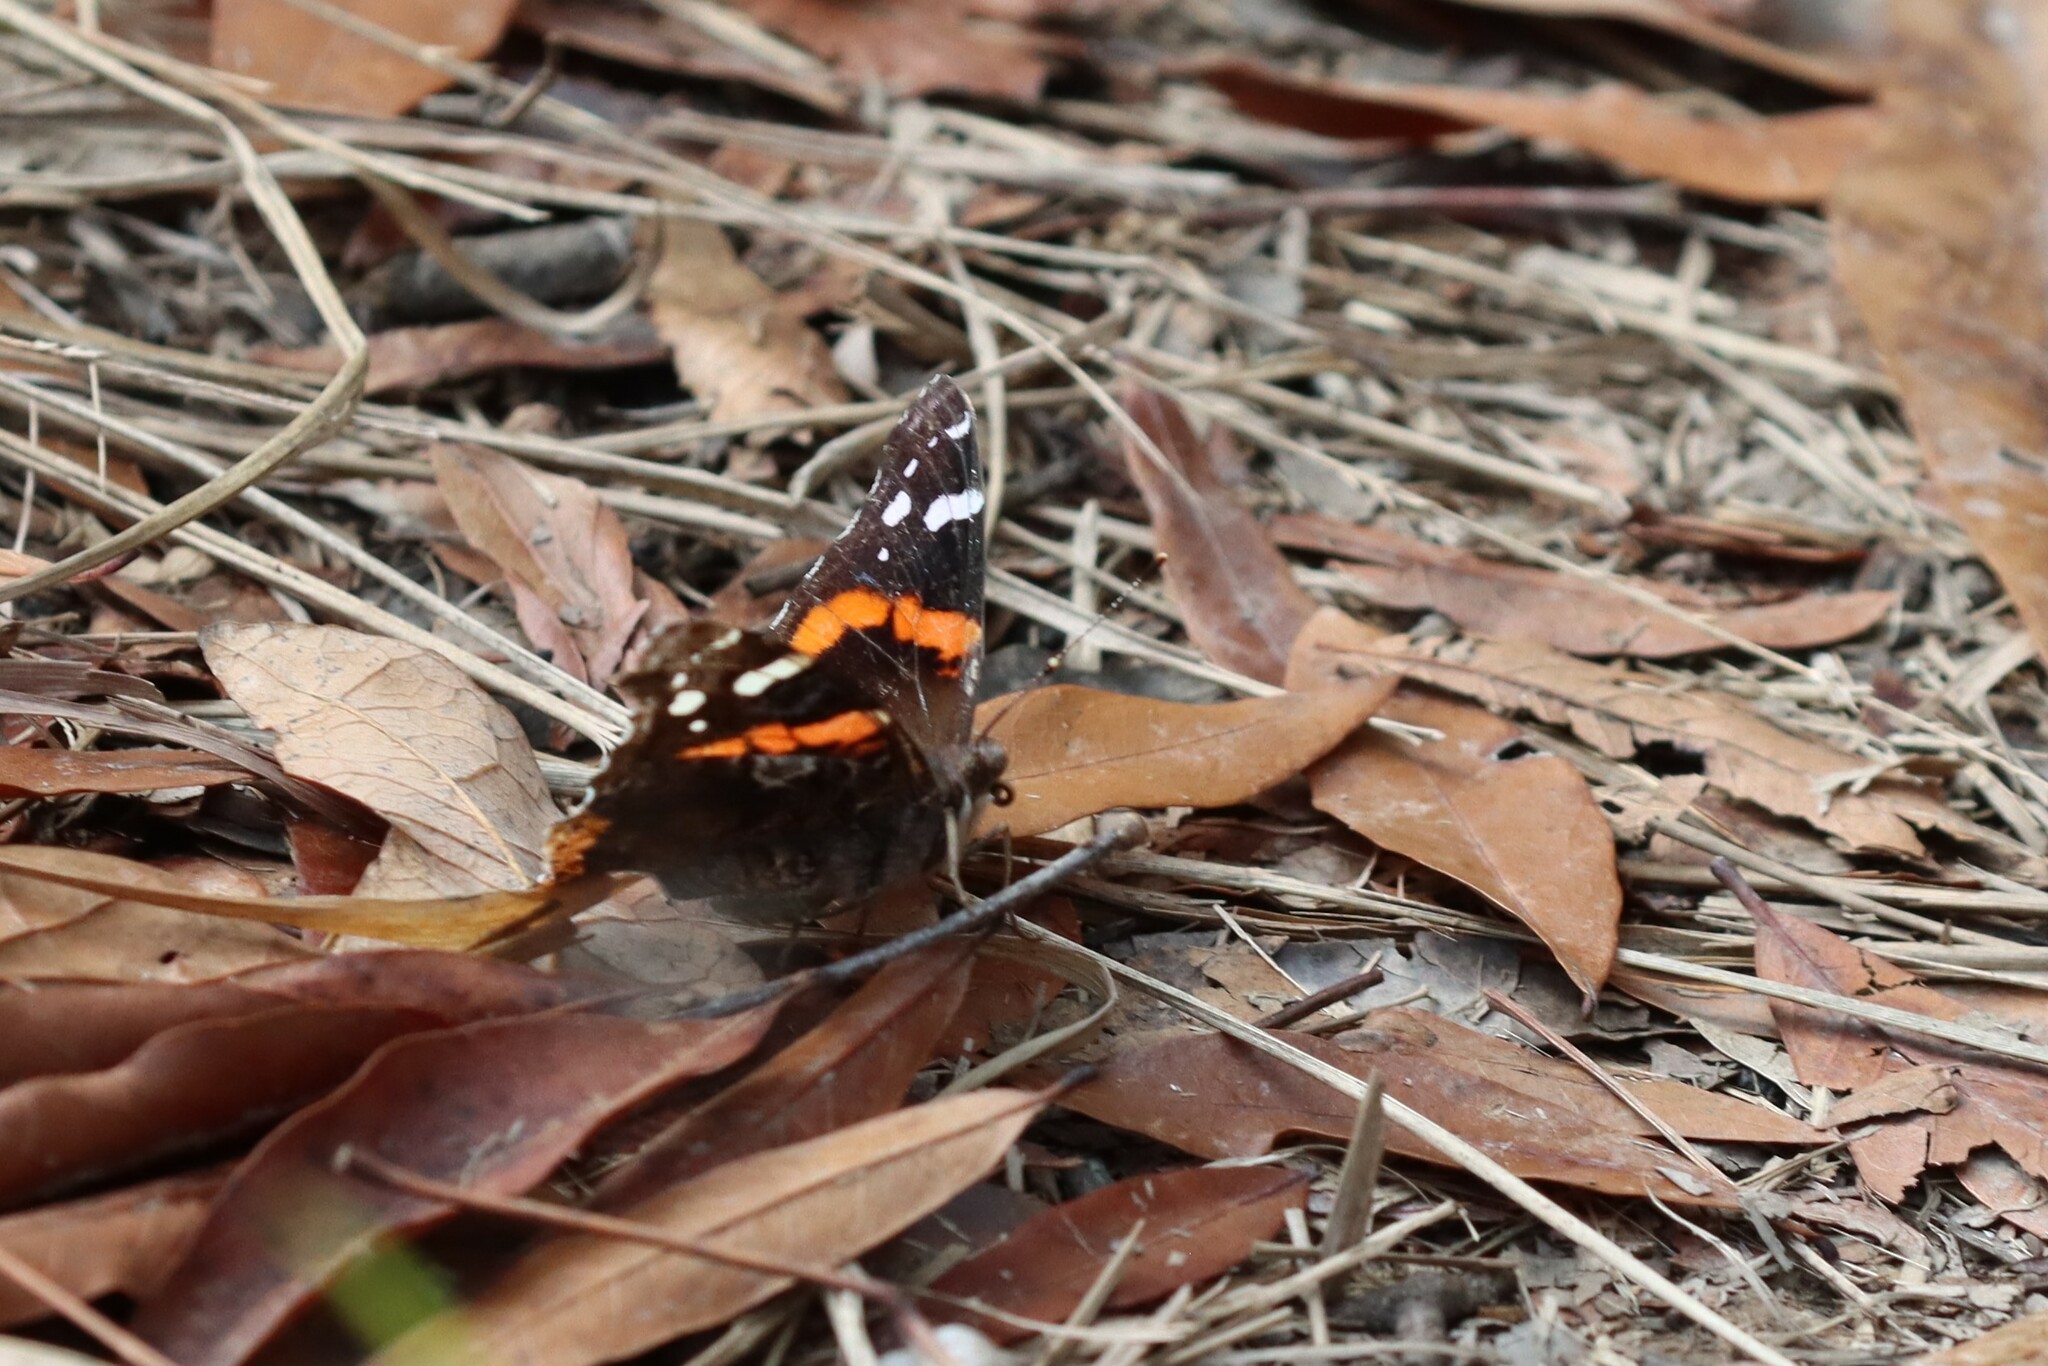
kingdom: Animalia
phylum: Arthropoda
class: Insecta
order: Lepidoptera
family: Nymphalidae
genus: Vanessa
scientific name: Vanessa atalanta
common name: Red admiral
